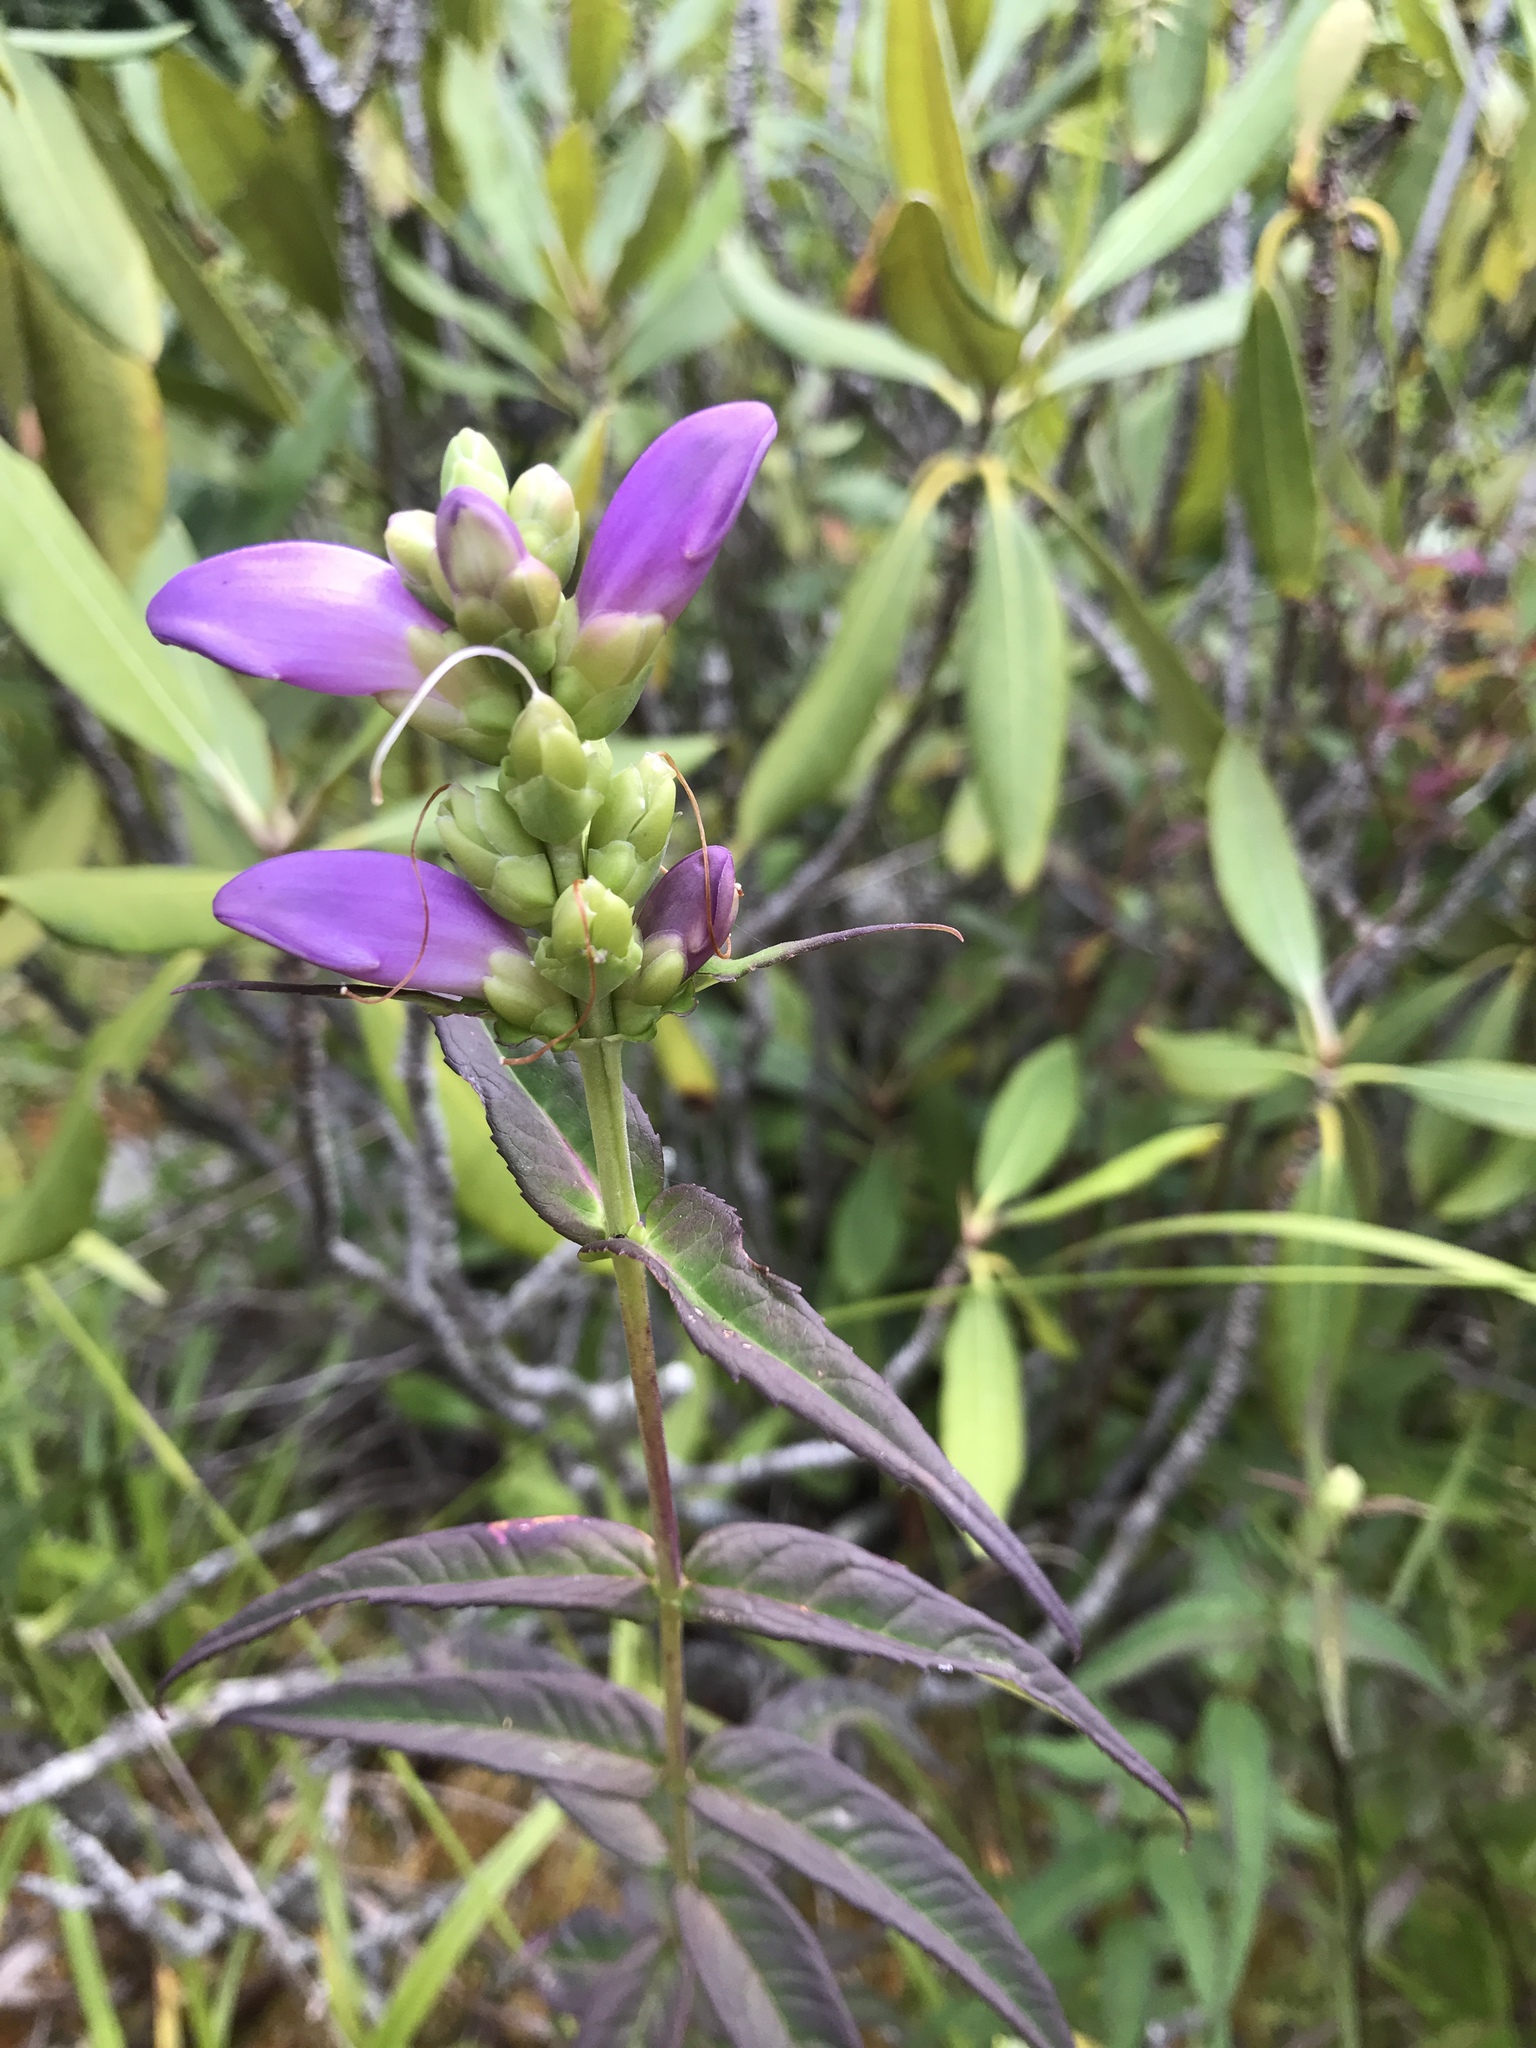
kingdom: Plantae
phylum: Tracheophyta
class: Magnoliopsida
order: Lamiales
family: Plantaginaceae
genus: Chelone
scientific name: Chelone cuthbertii
